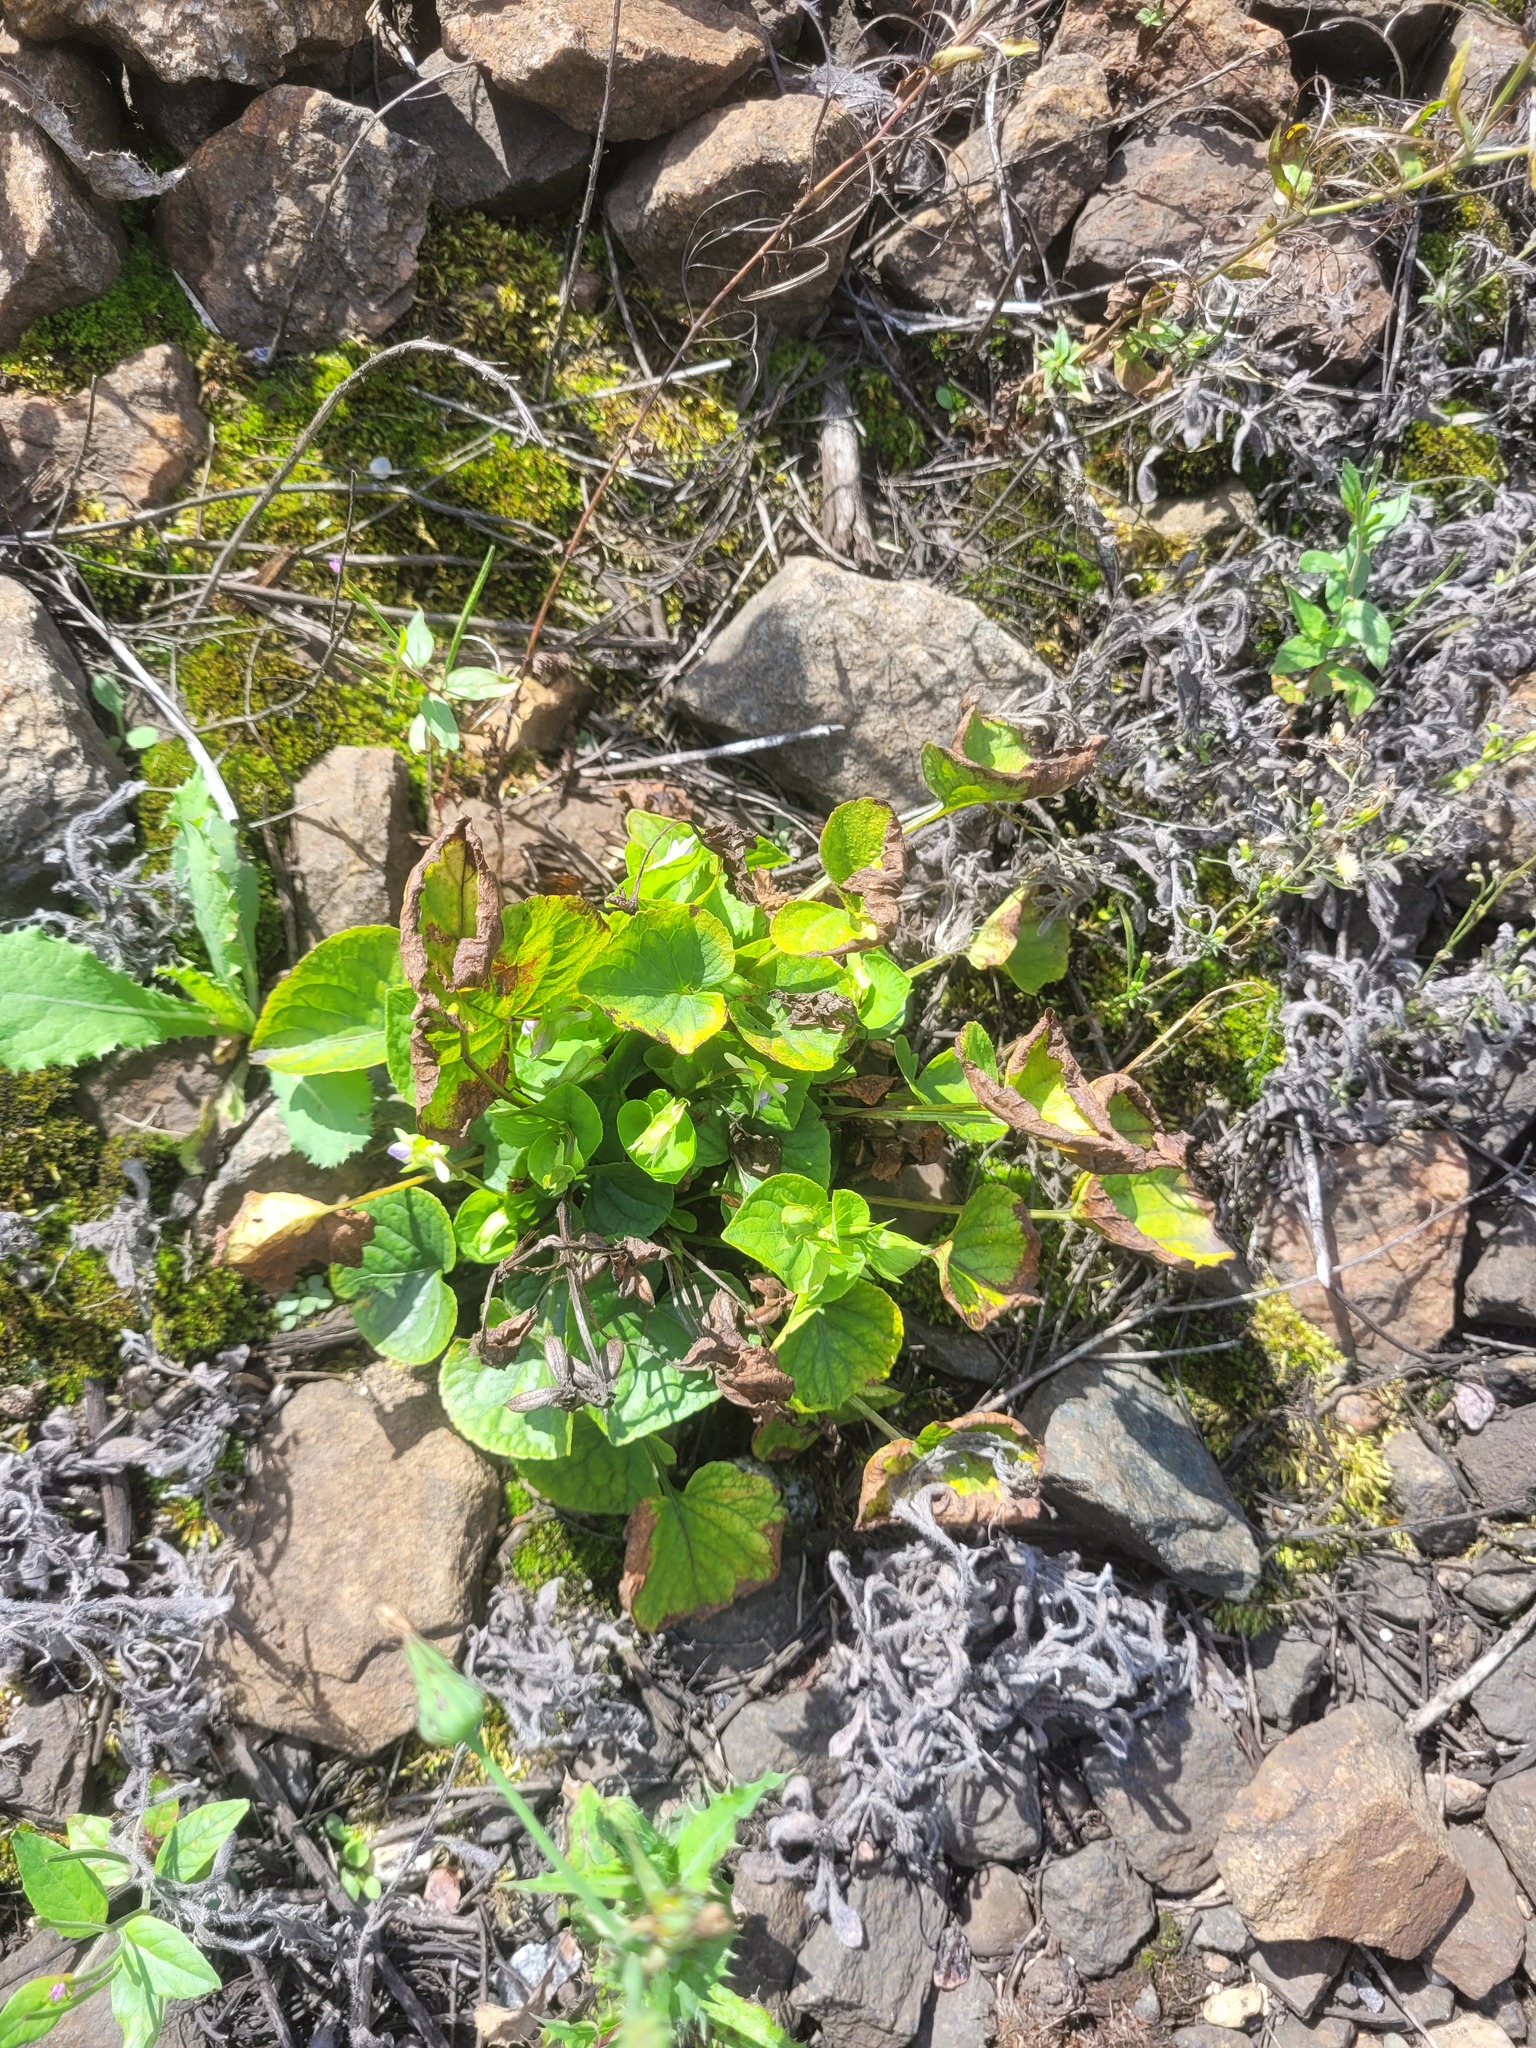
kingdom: Plantae
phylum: Tracheophyta
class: Magnoliopsida
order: Malpighiales
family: Violaceae
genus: Viola
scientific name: Viola mirabilis
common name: Wonder violet
